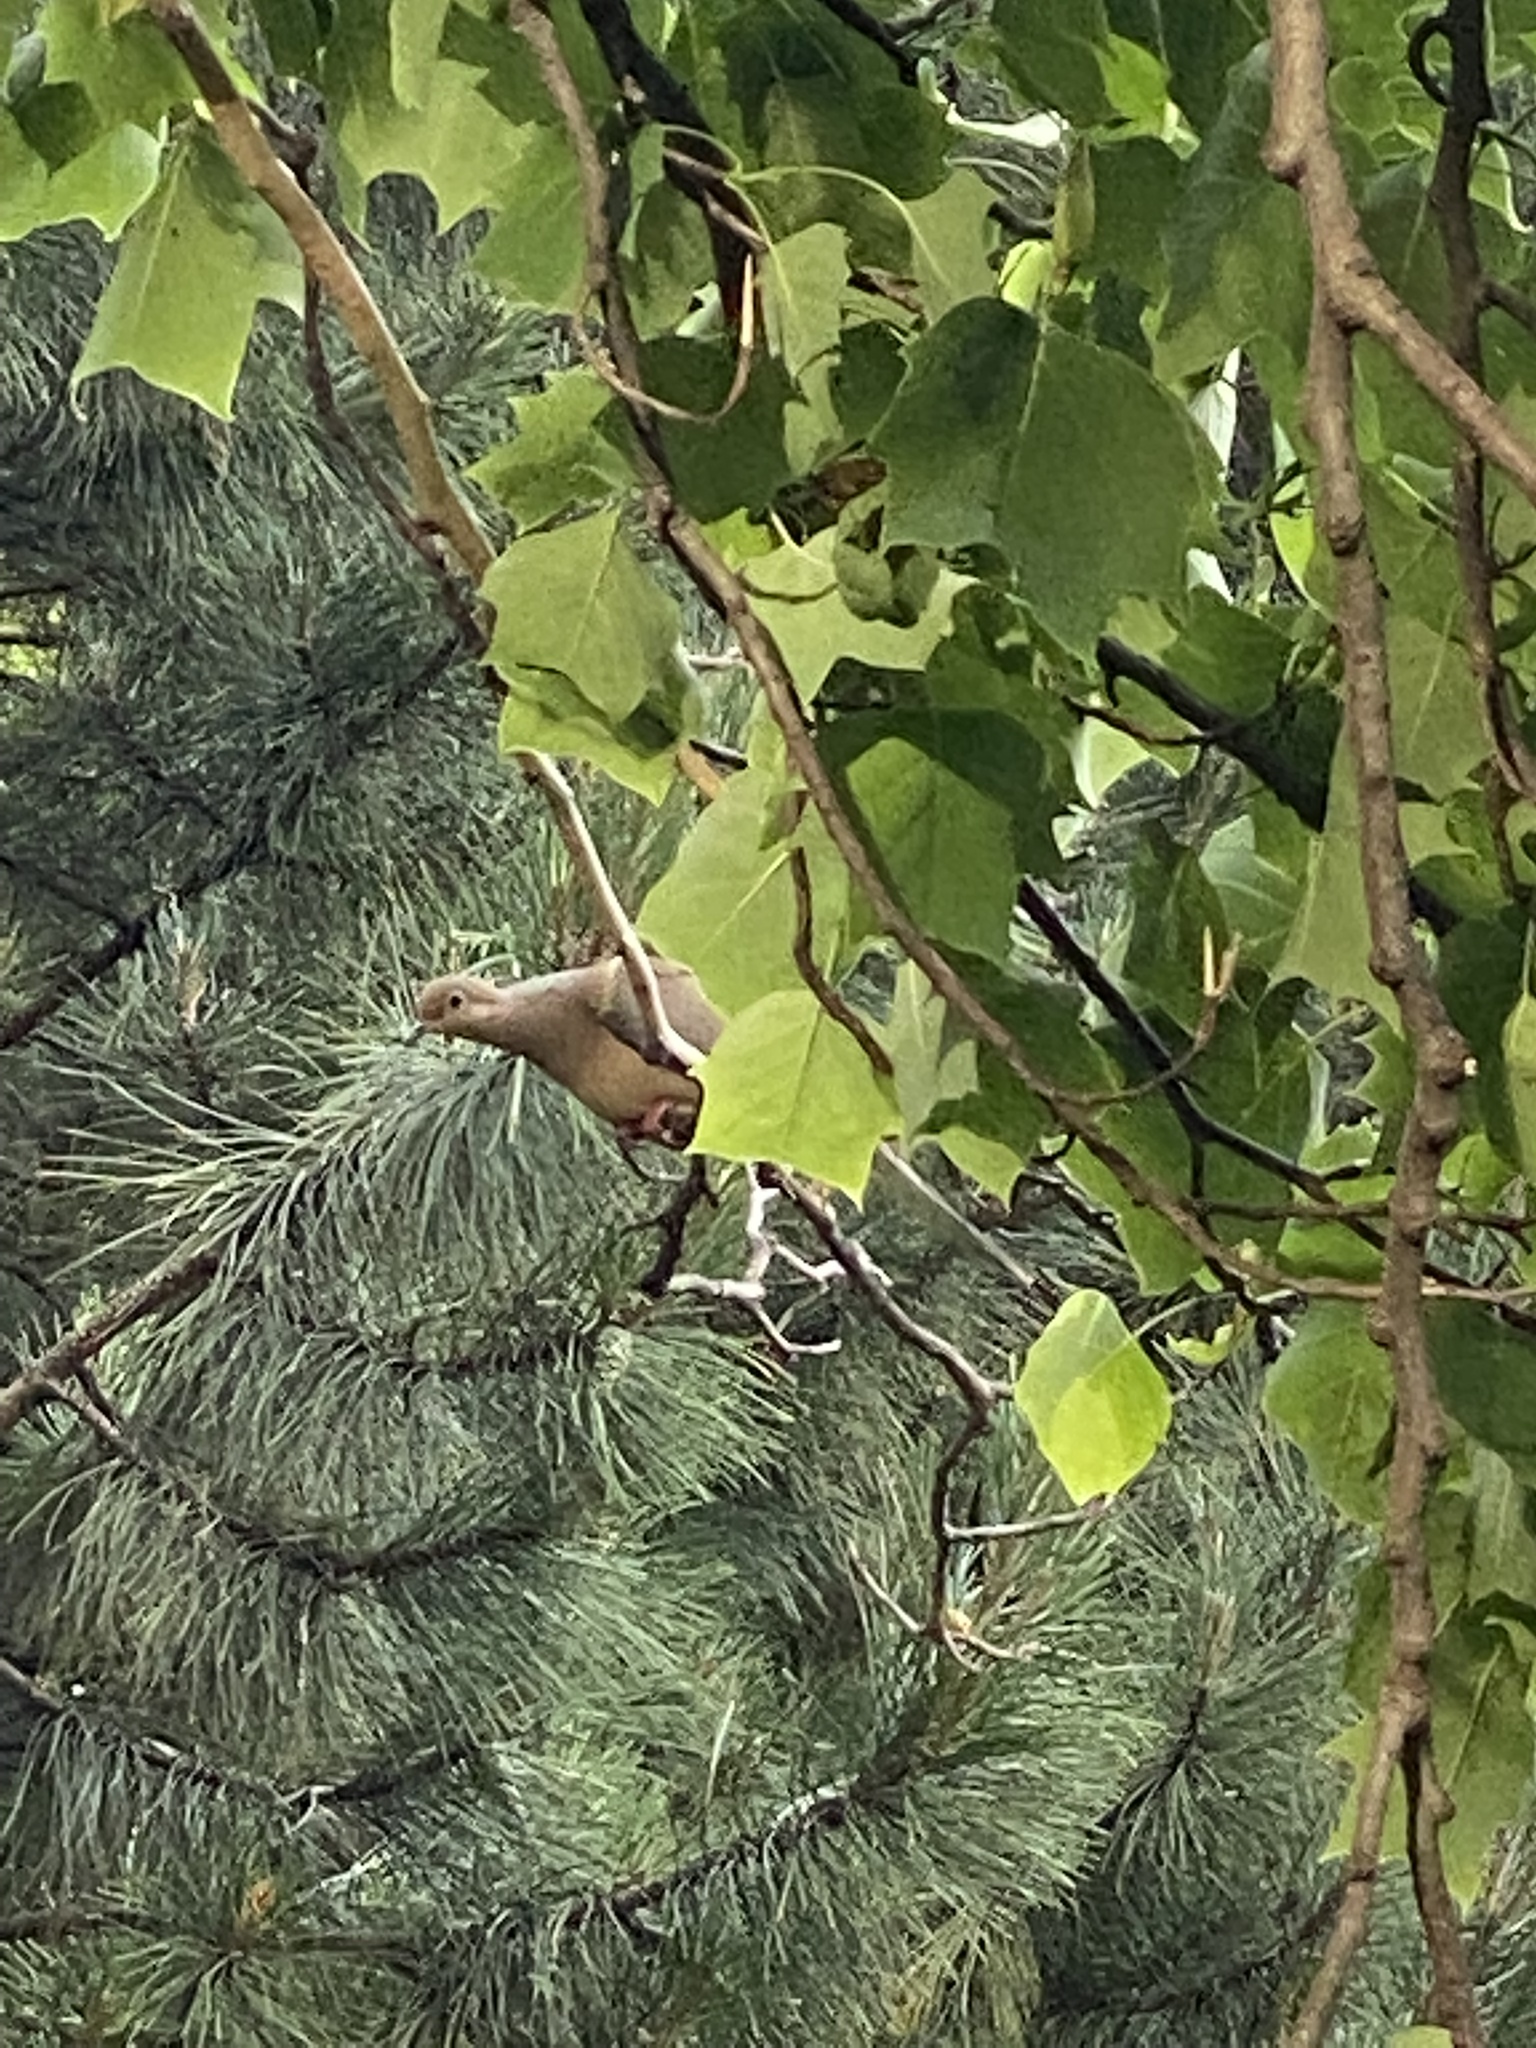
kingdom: Animalia
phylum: Chordata
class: Aves
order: Columbiformes
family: Columbidae
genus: Zenaida
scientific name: Zenaida macroura
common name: Mourning dove
